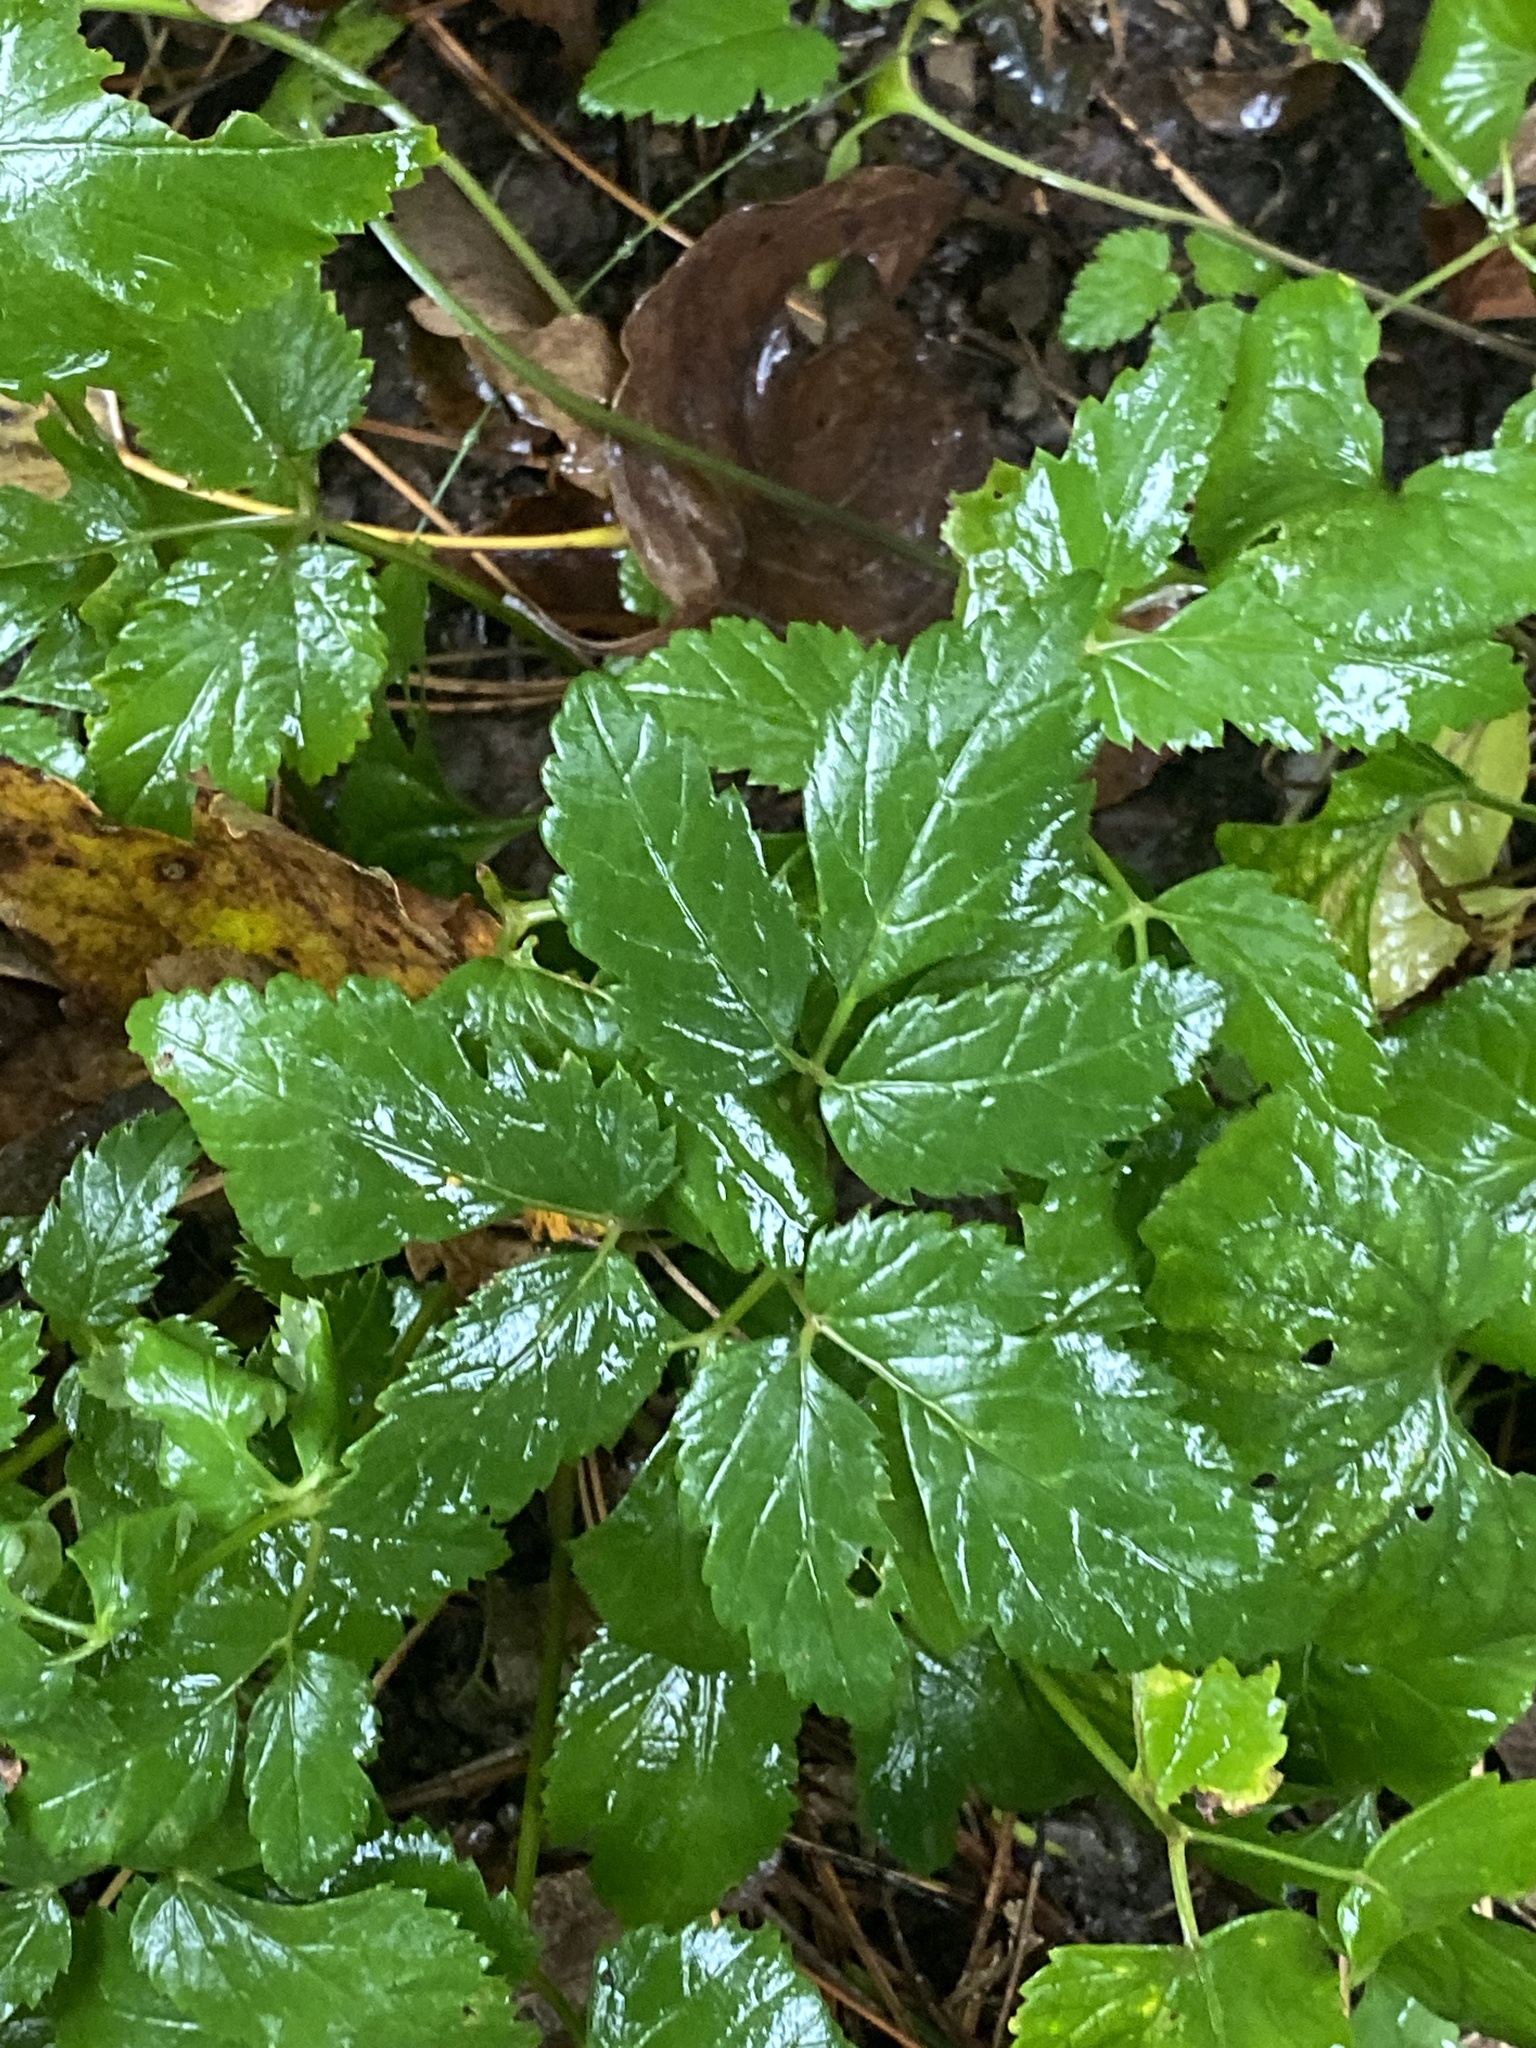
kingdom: Plantae
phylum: Tracheophyta
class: Magnoliopsida
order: Apiales
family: Apiaceae
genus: Aegopodium
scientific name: Aegopodium podagraria
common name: Ground-elder
